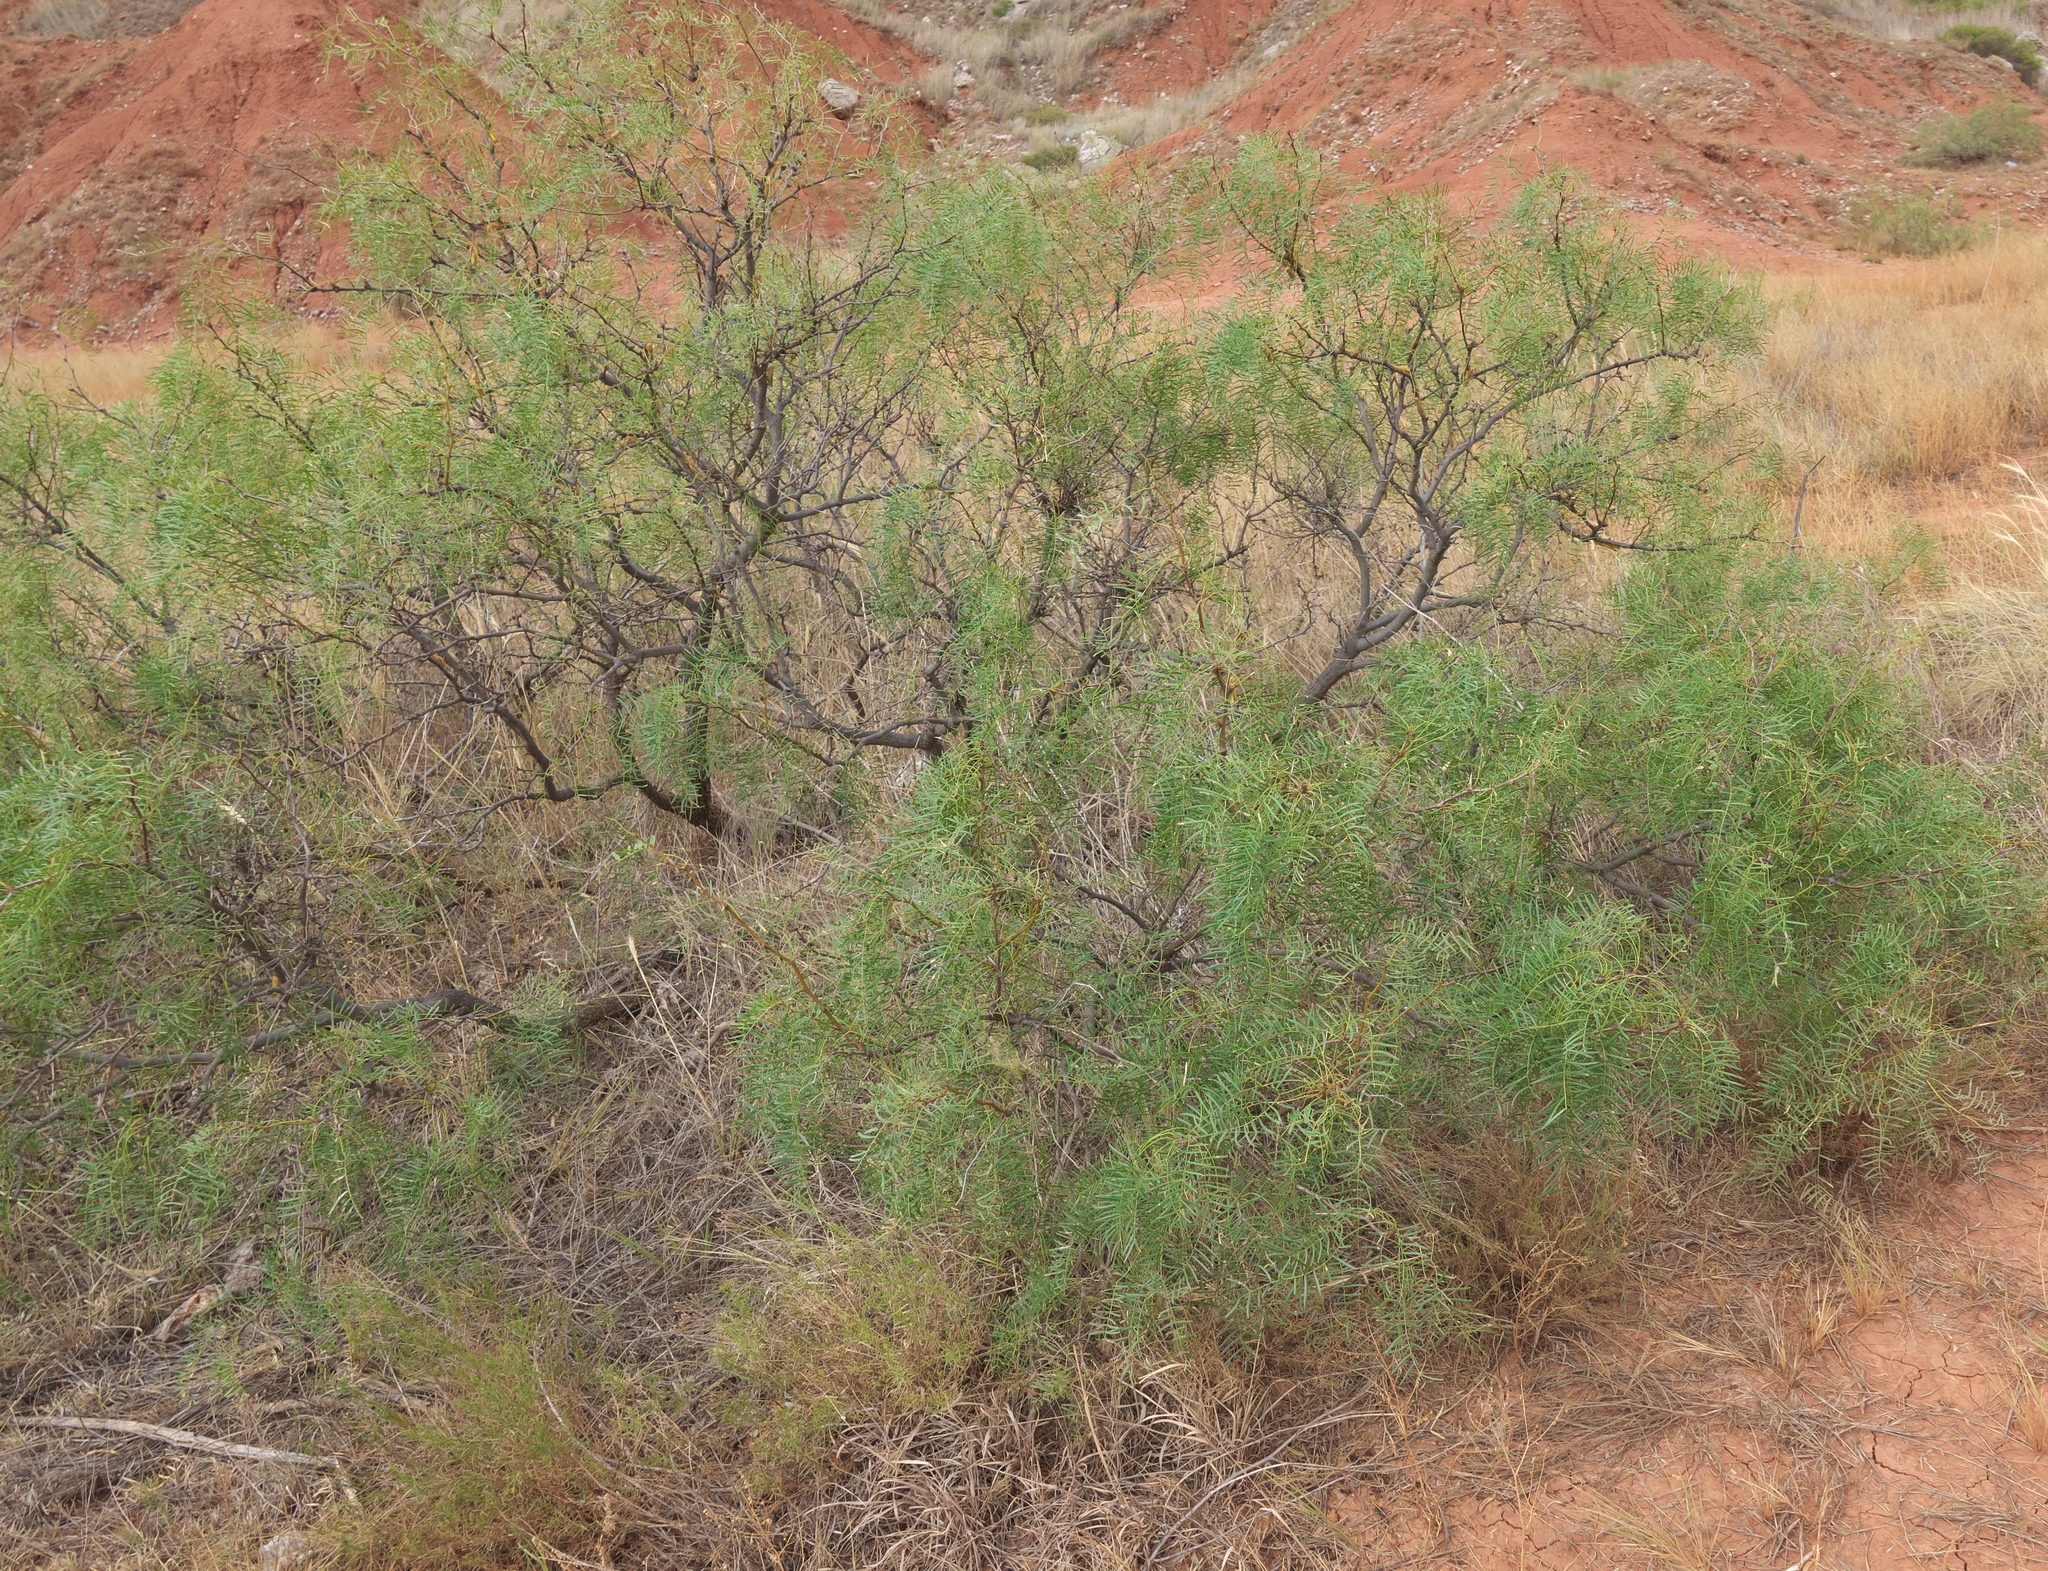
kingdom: Plantae
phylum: Tracheophyta
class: Magnoliopsida
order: Fabales
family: Fabaceae
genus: Prosopis
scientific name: Prosopis glandulosa
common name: Honey mesquite
